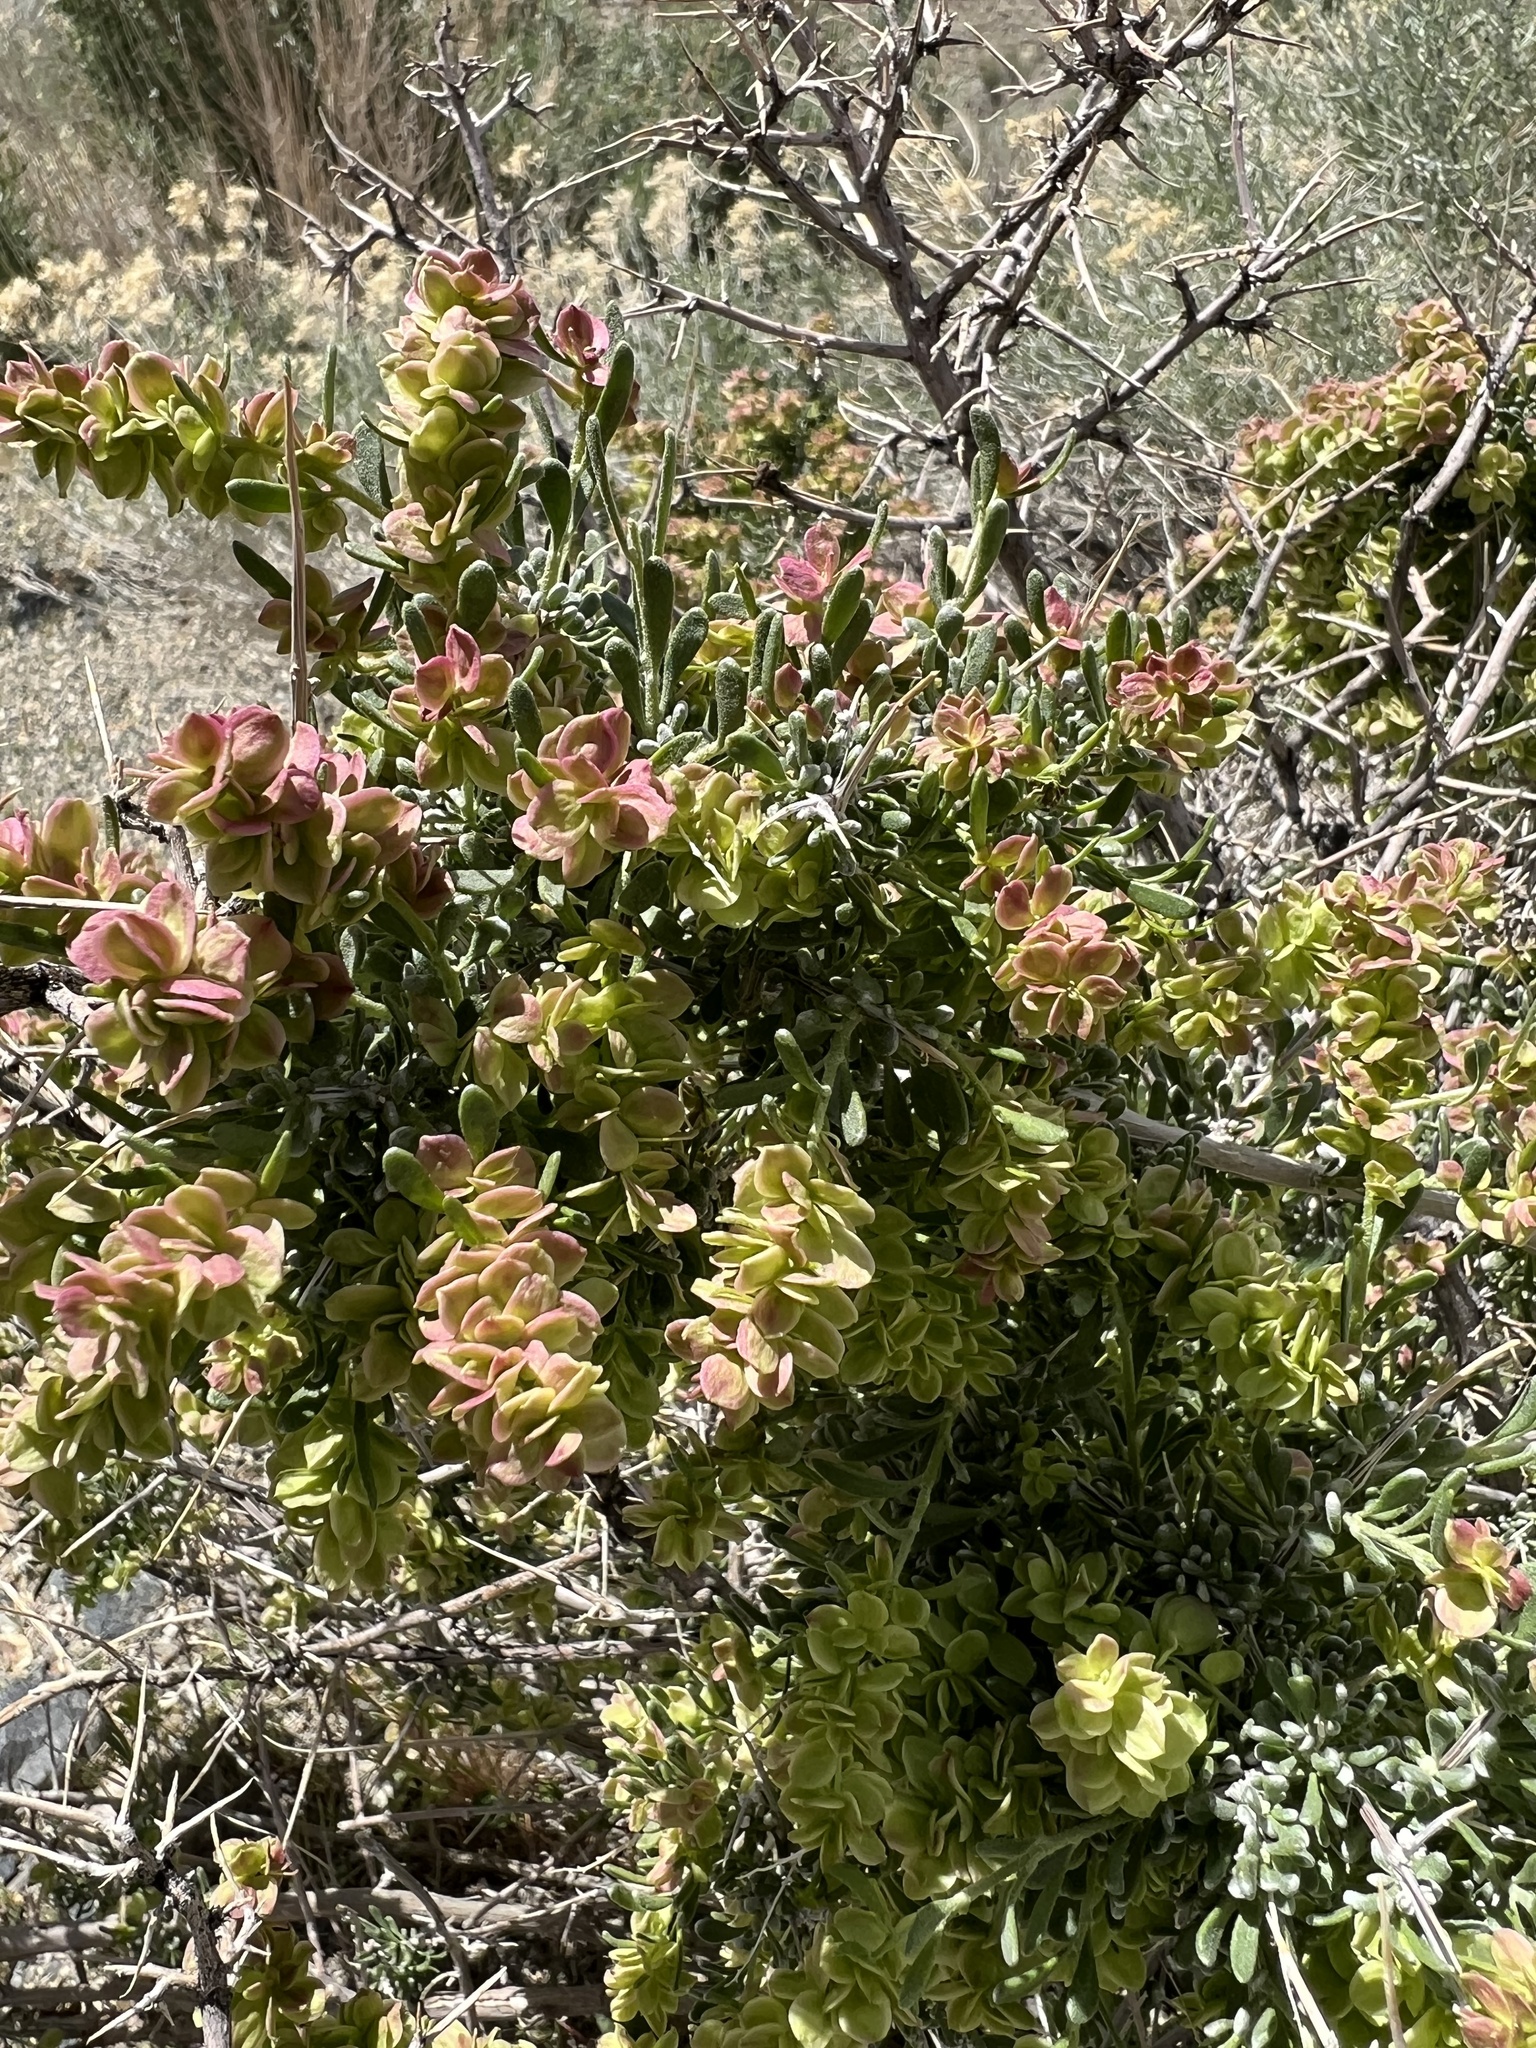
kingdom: Plantae
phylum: Tracheophyta
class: Magnoliopsida
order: Caryophyllales
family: Amaranthaceae
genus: Grayia
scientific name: Grayia spinosa
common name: Spiny hopsage
